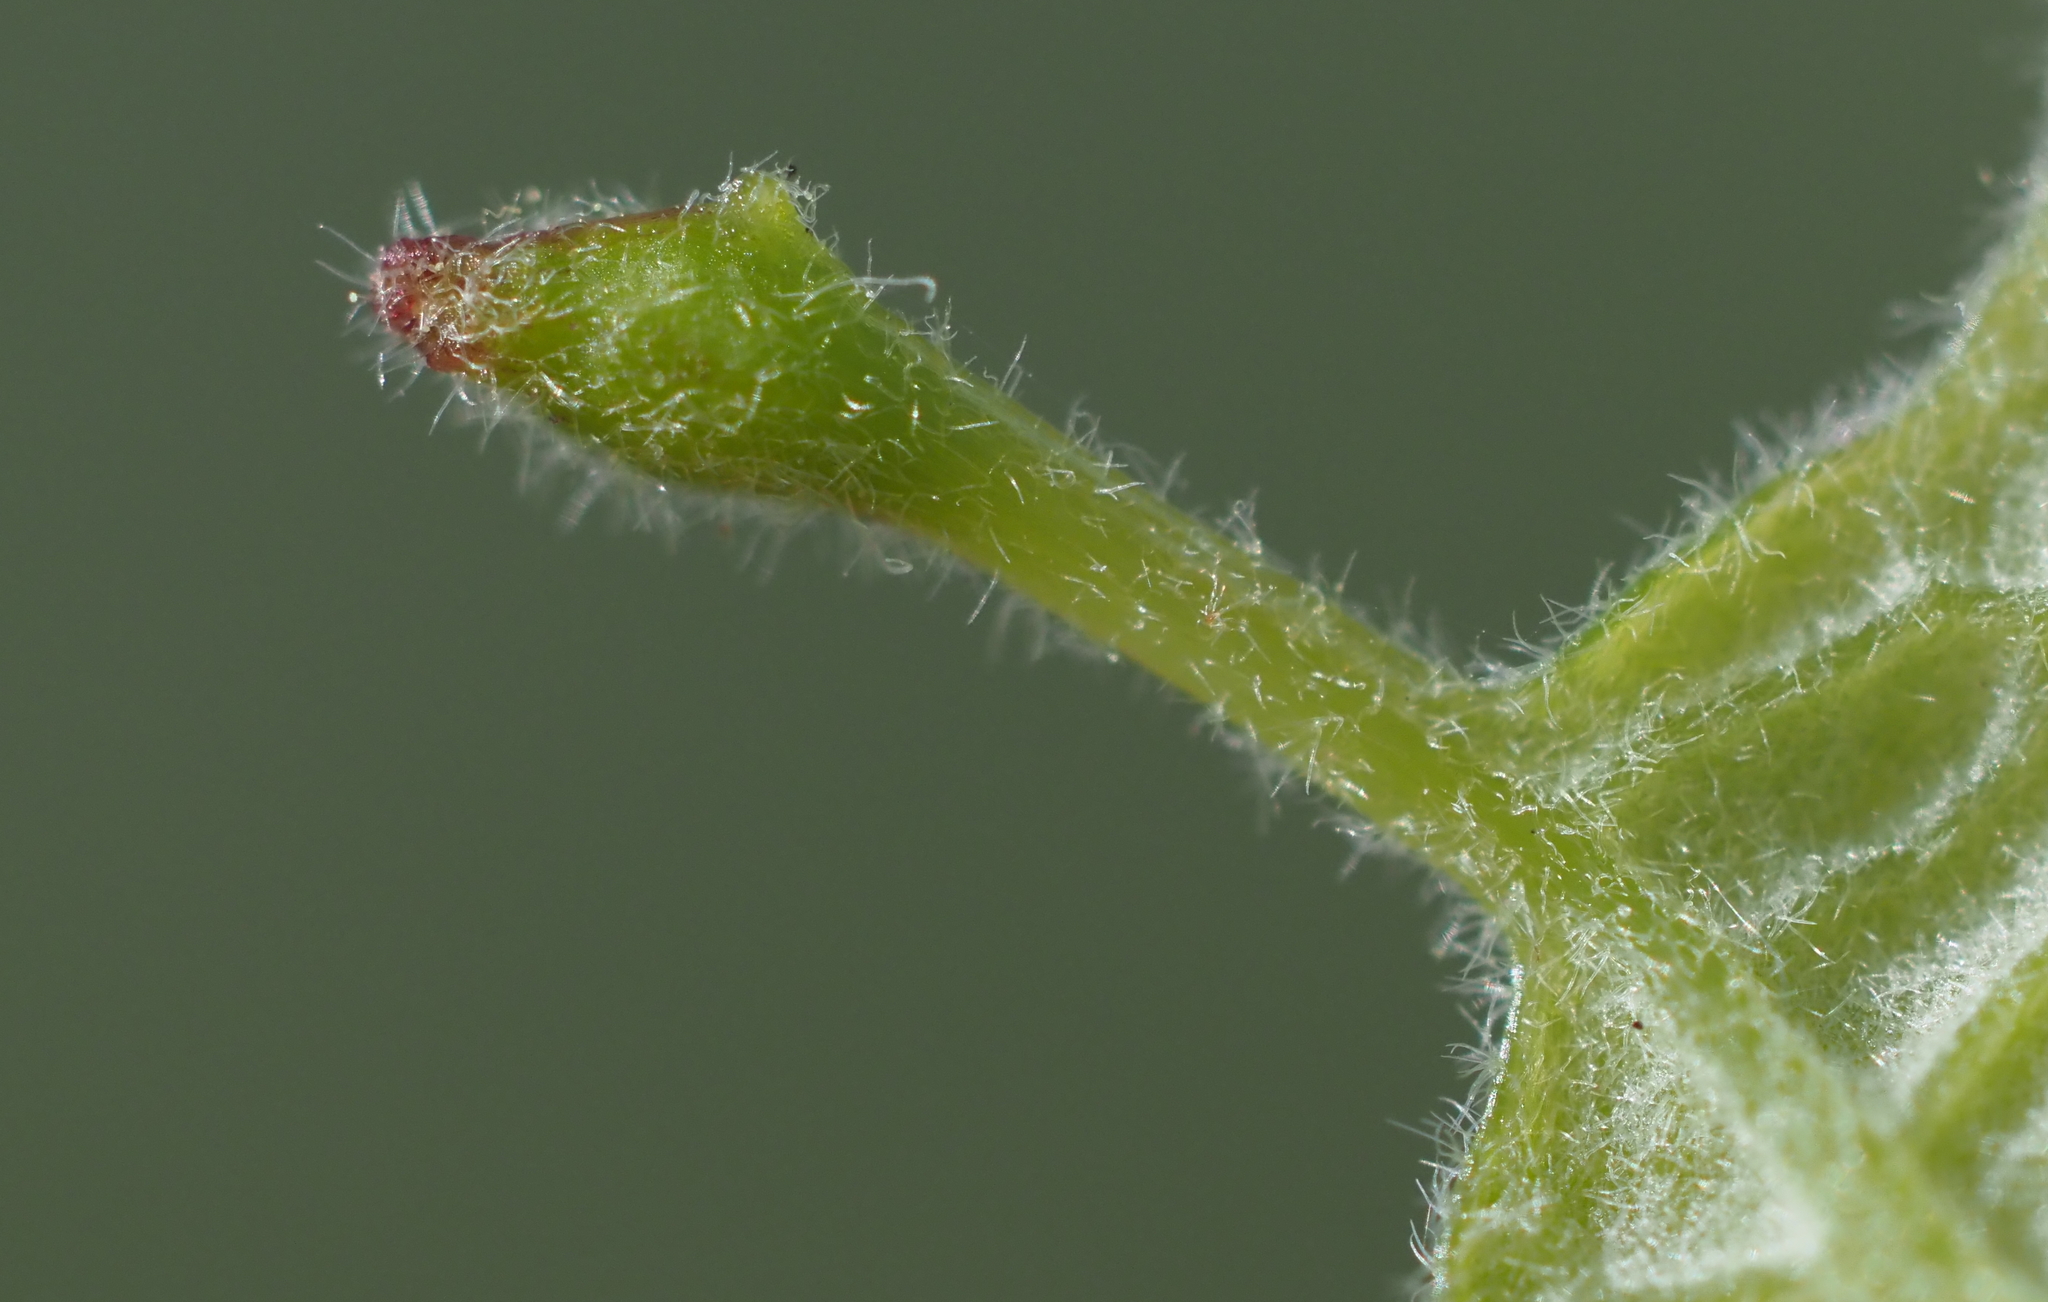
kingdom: Animalia
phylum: Arthropoda
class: Insecta
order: Hymenoptera
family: Cynipidae
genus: Andricus
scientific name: Andricus
